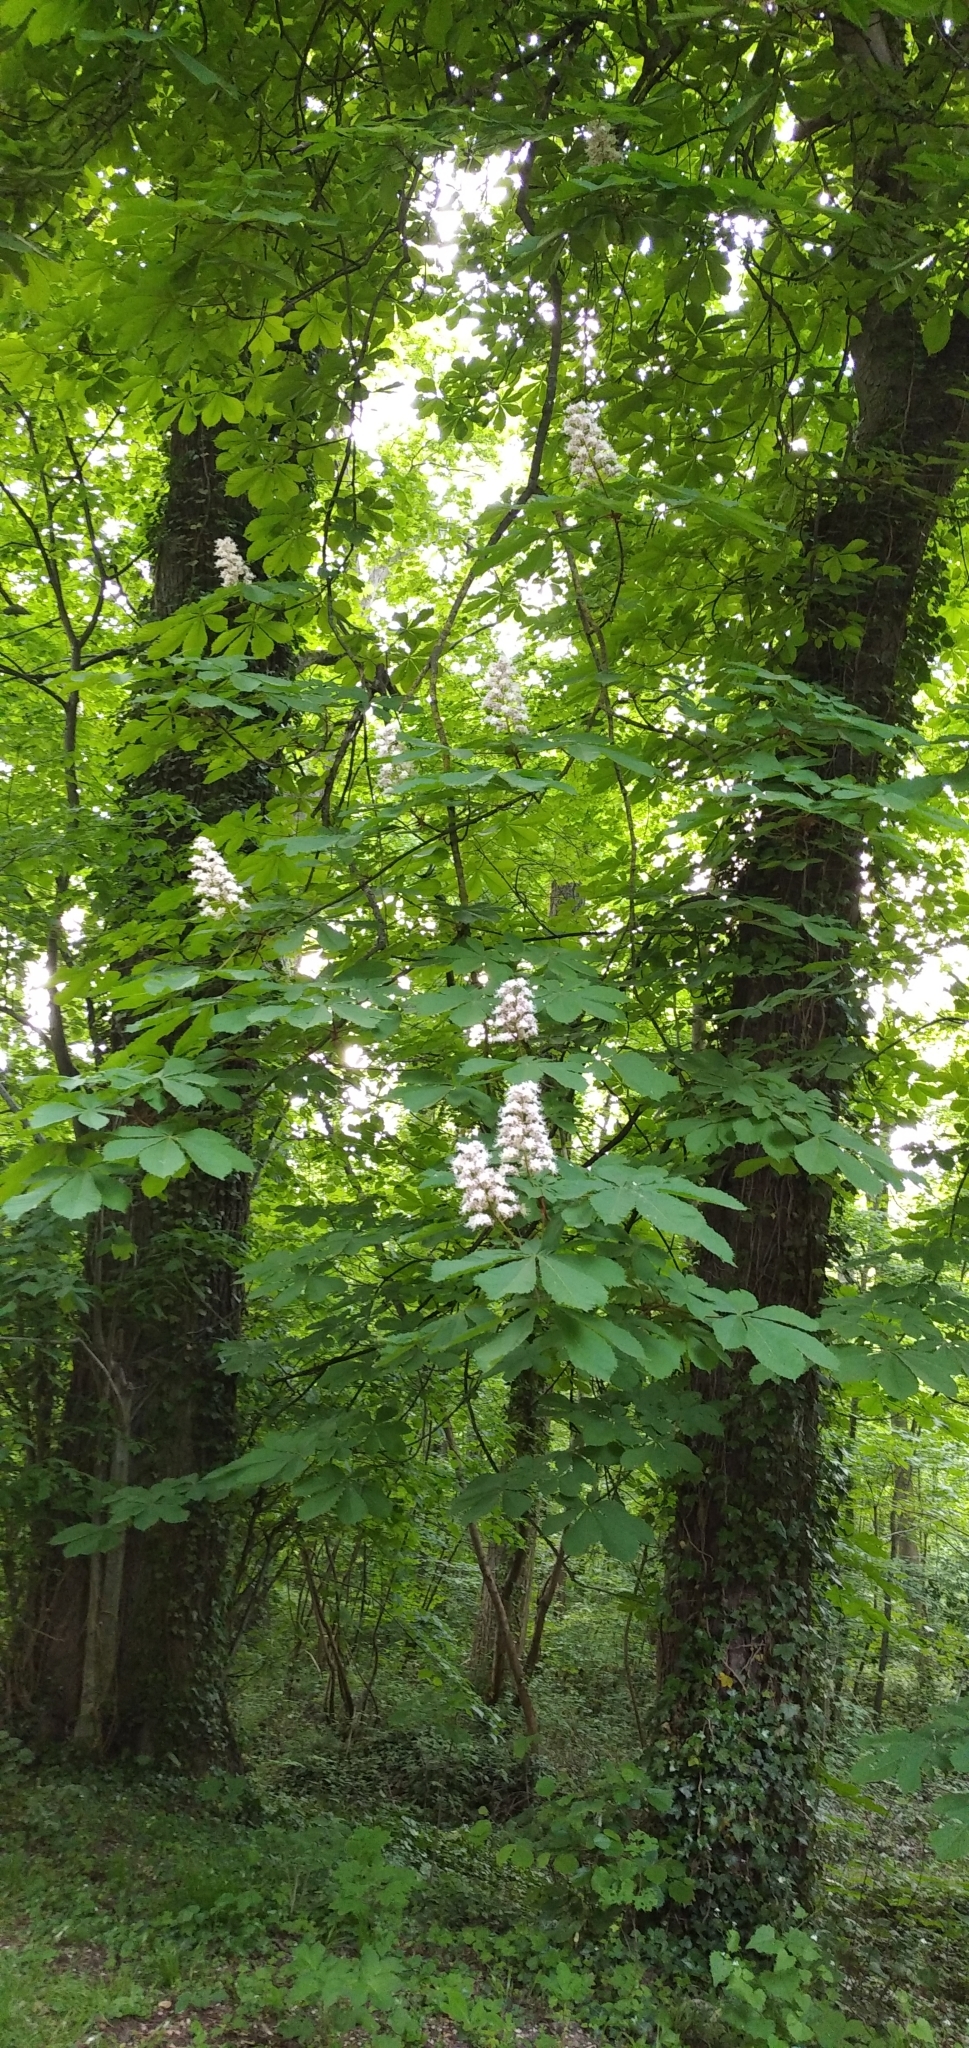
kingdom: Plantae
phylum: Tracheophyta
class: Magnoliopsida
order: Sapindales
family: Sapindaceae
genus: Aesculus
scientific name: Aesculus hippocastanum
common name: Horse-chestnut
